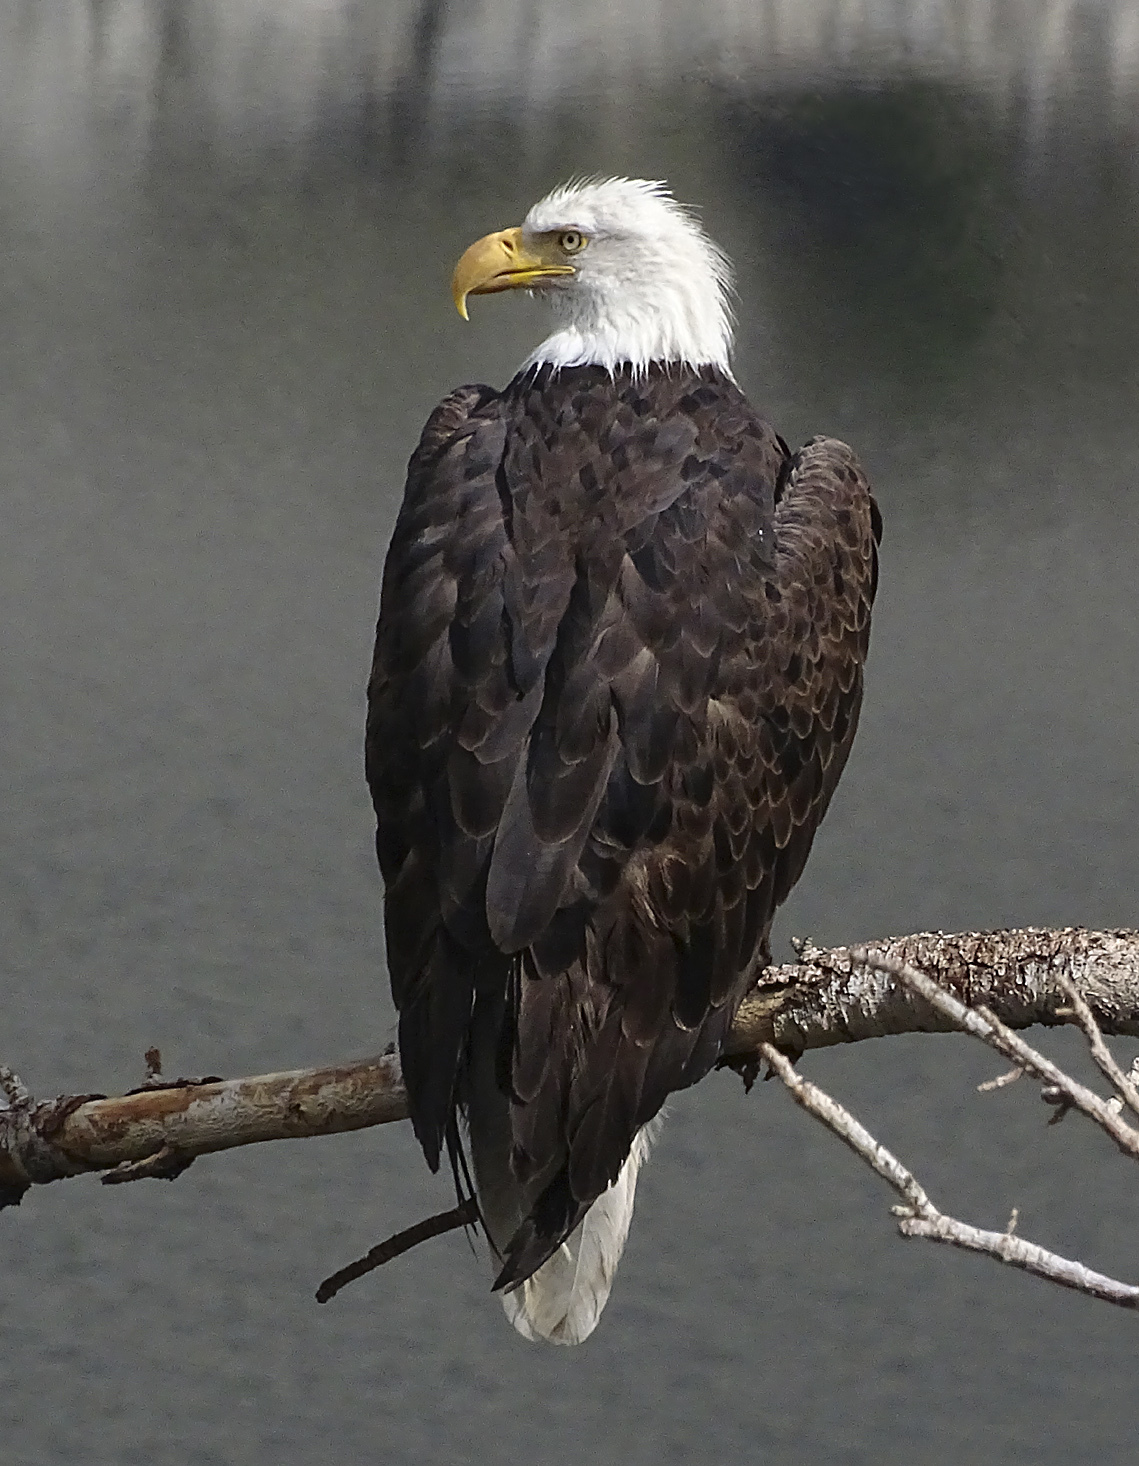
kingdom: Animalia
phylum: Chordata
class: Aves
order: Accipitriformes
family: Accipitridae
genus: Haliaeetus
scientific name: Haliaeetus leucocephalus
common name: Bald eagle
